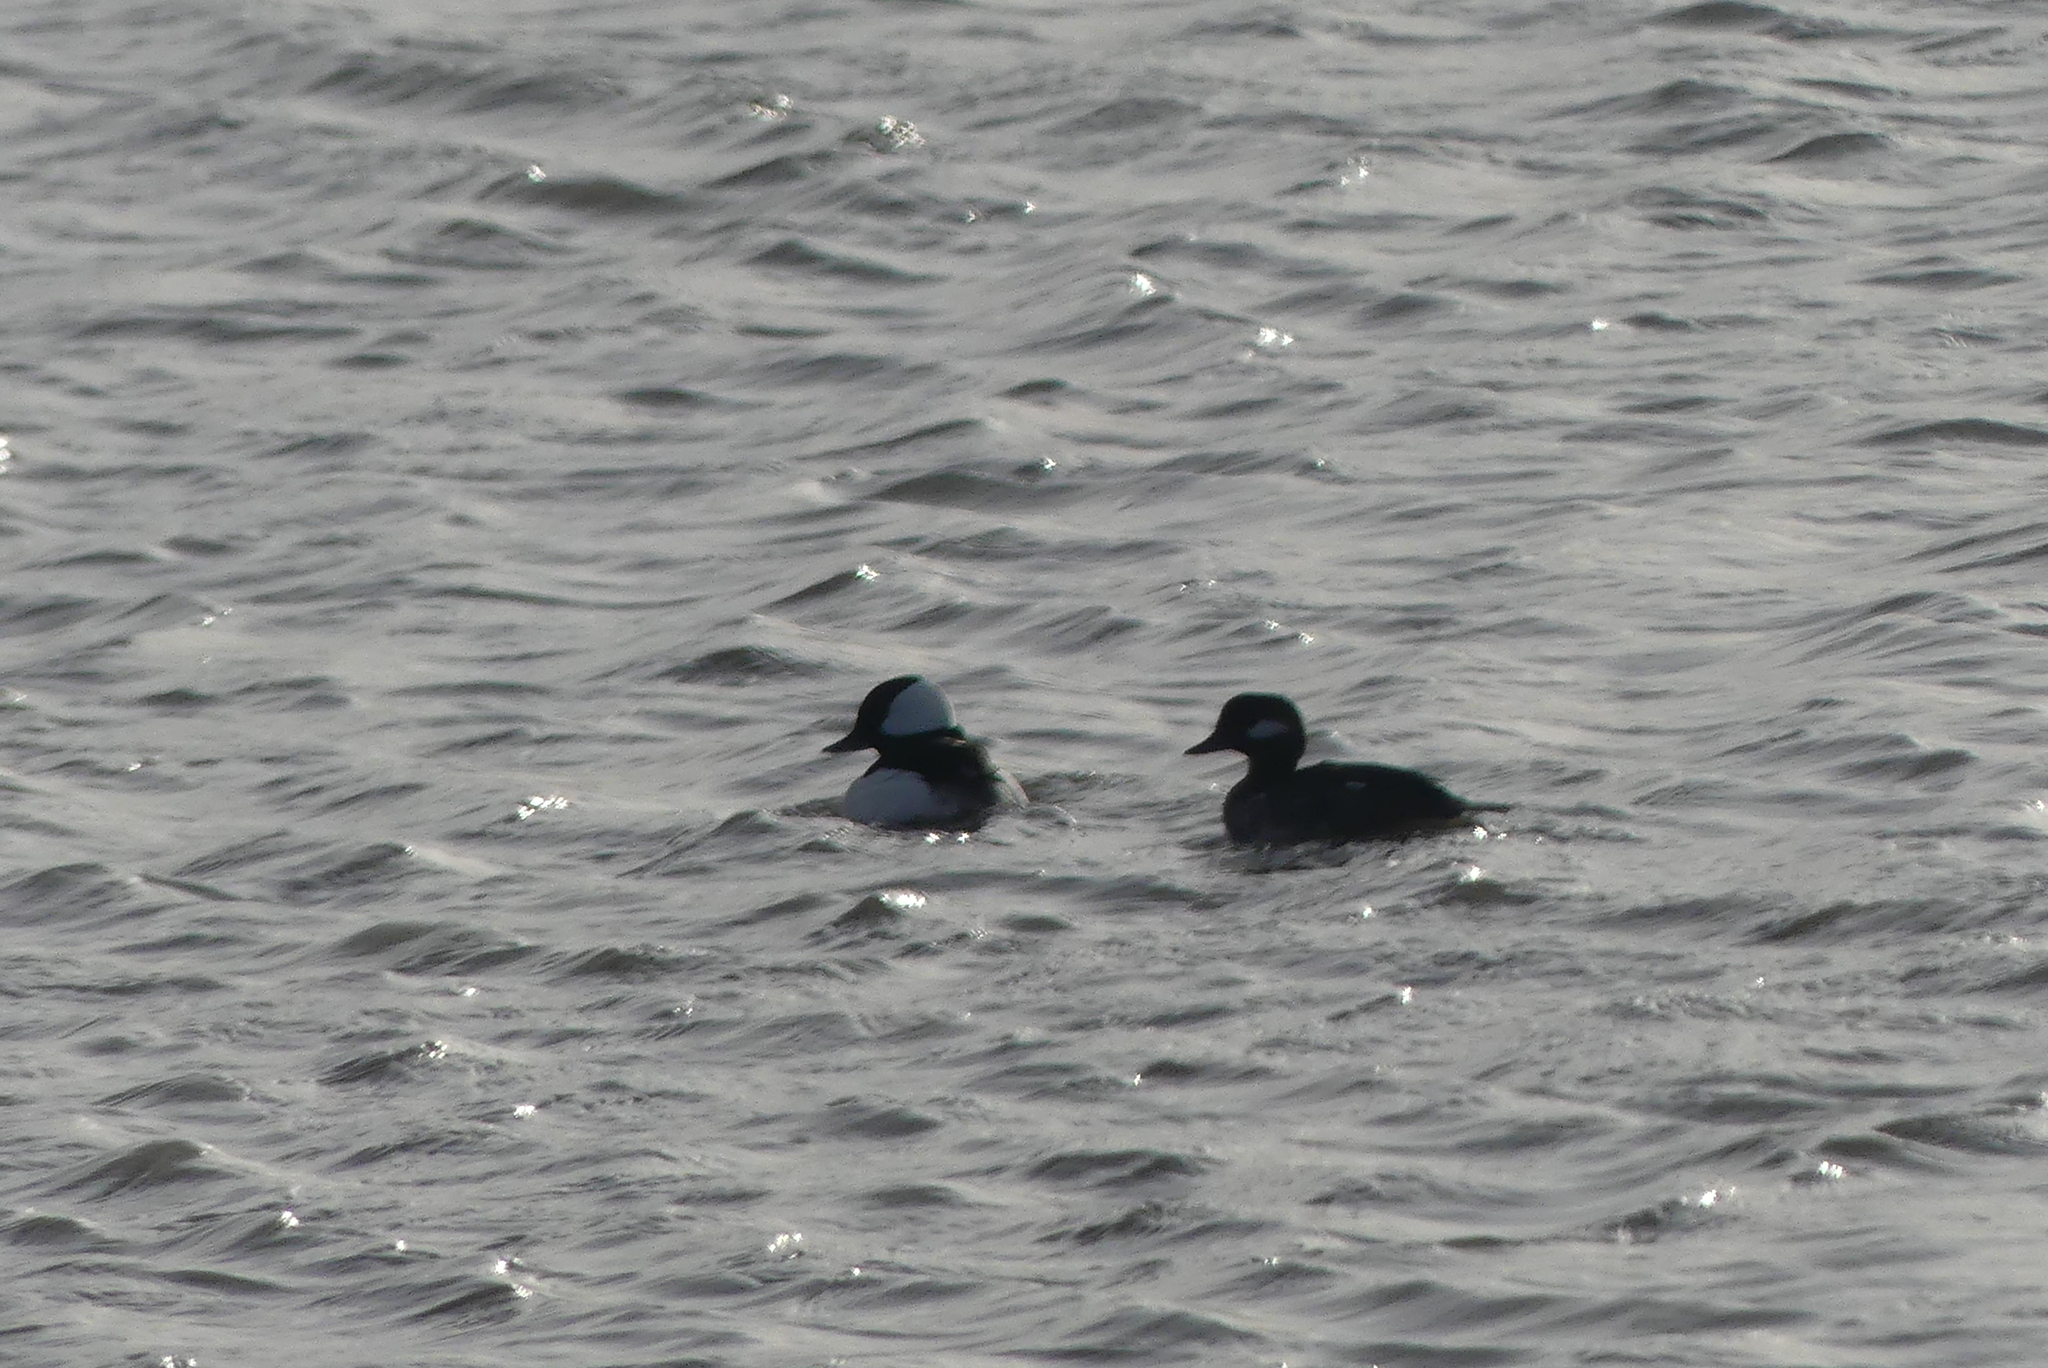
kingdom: Animalia
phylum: Chordata
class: Aves
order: Anseriformes
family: Anatidae
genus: Bucephala
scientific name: Bucephala albeola
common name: Bufflehead
